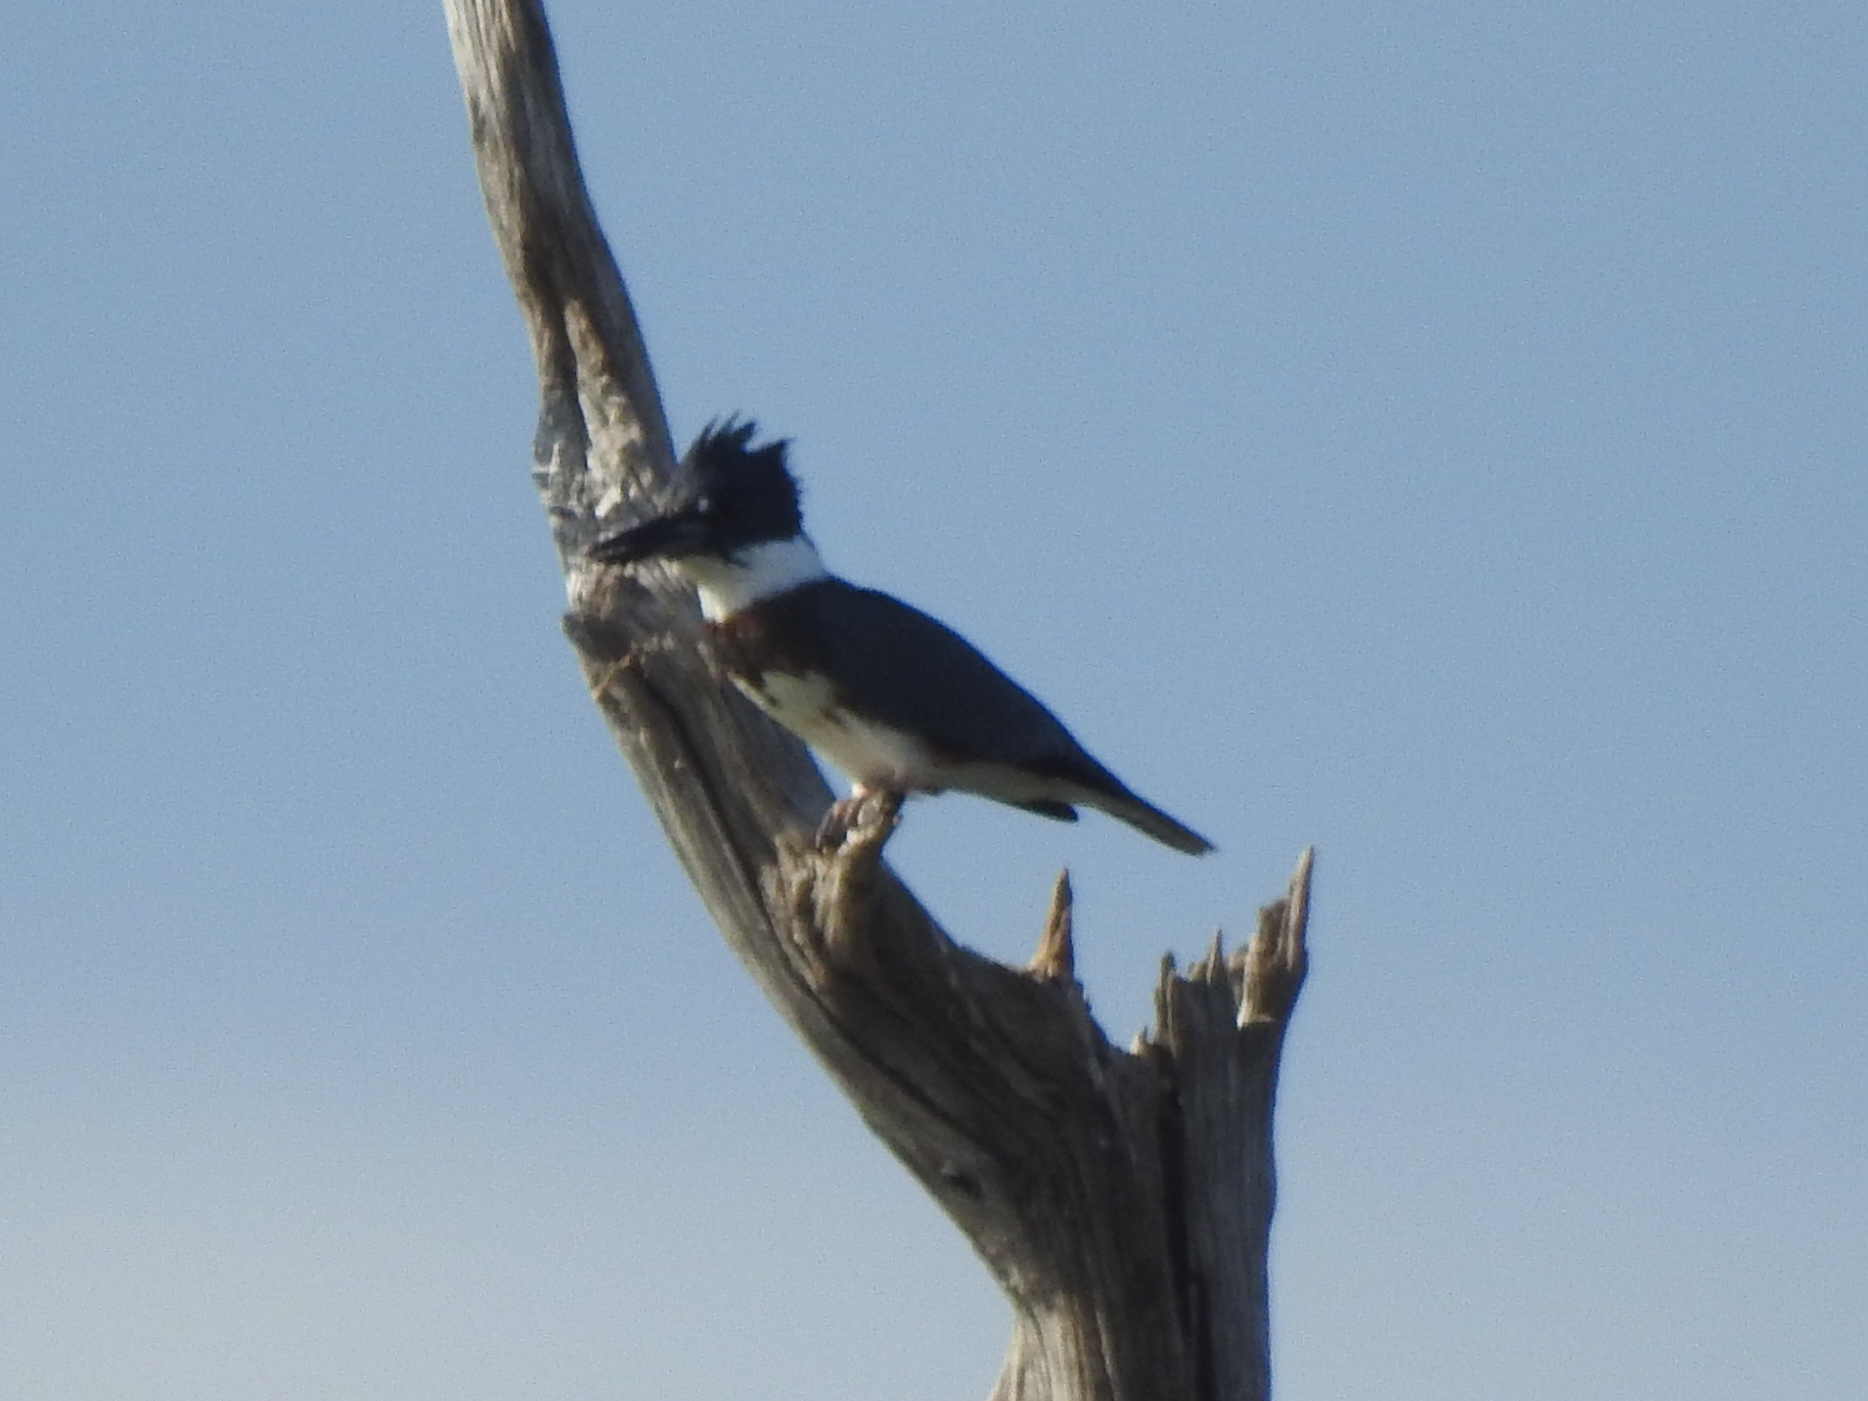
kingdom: Animalia
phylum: Chordata
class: Aves
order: Coraciiformes
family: Alcedinidae
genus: Megaceryle
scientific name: Megaceryle alcyon
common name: Belted kingfisher
